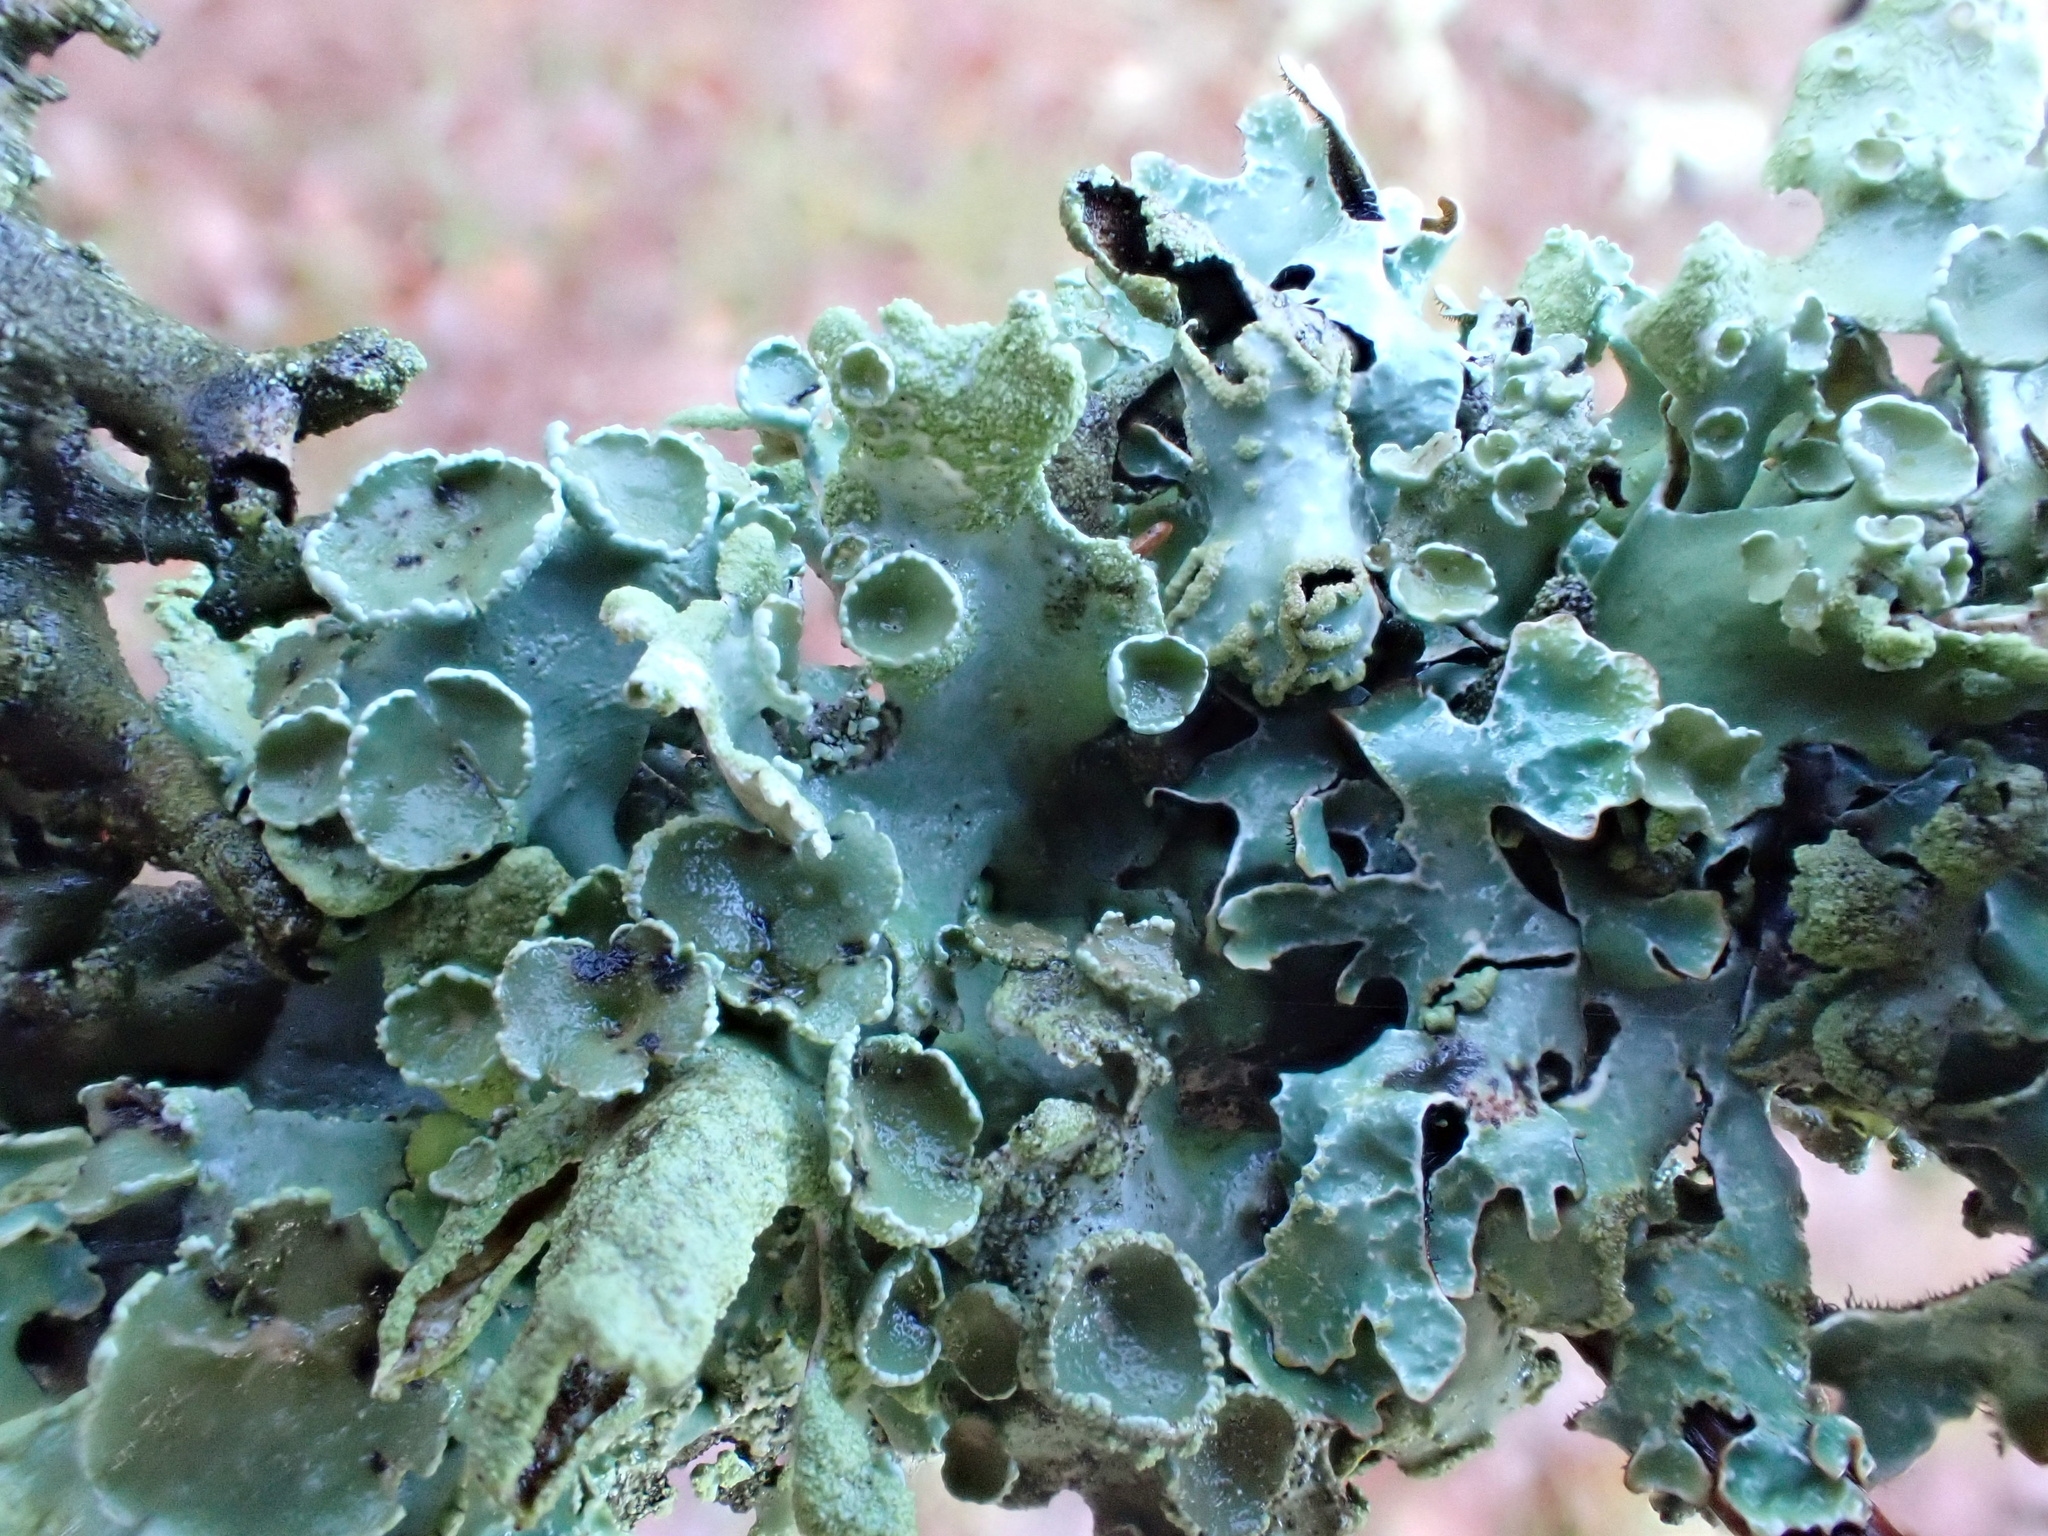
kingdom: Fungi
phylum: Ascomycota
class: Lecanoromycetes
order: Lecanorales
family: Parmeliaceae
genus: Parmelia
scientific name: Parmelia sulcata
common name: Netted shield lichen
